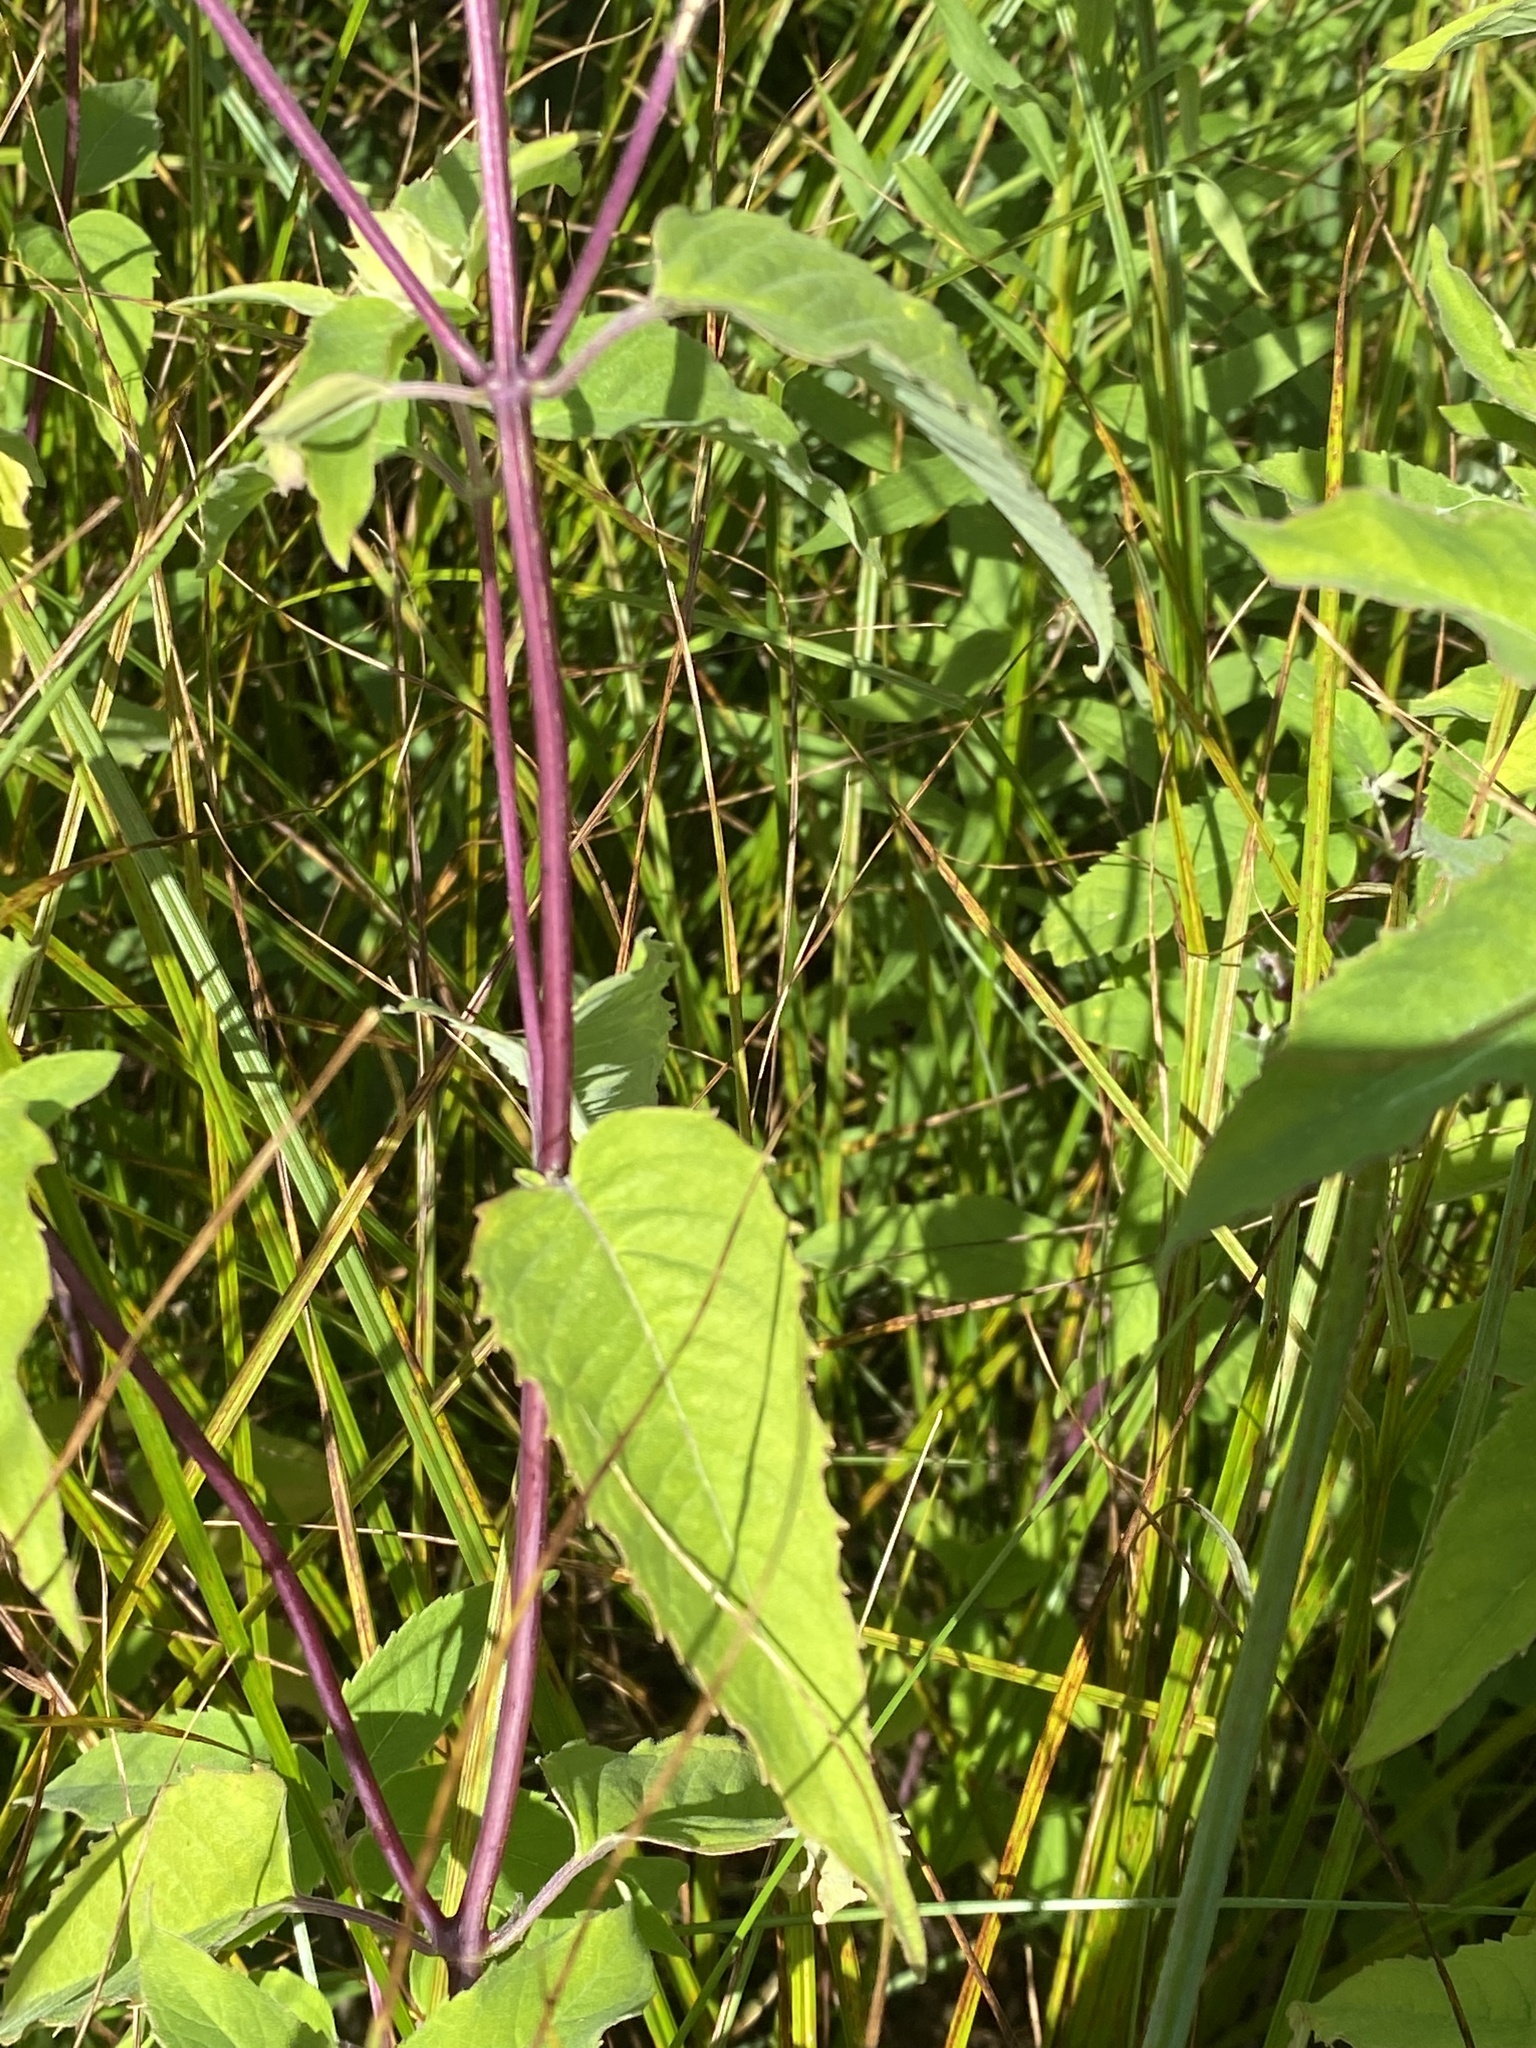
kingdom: Plantae
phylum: Tracheophyta
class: Magnoliopsida
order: Lamiales
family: Lamiaceae
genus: Monarda
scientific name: Monarda fistulosa
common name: Purple beebalm
